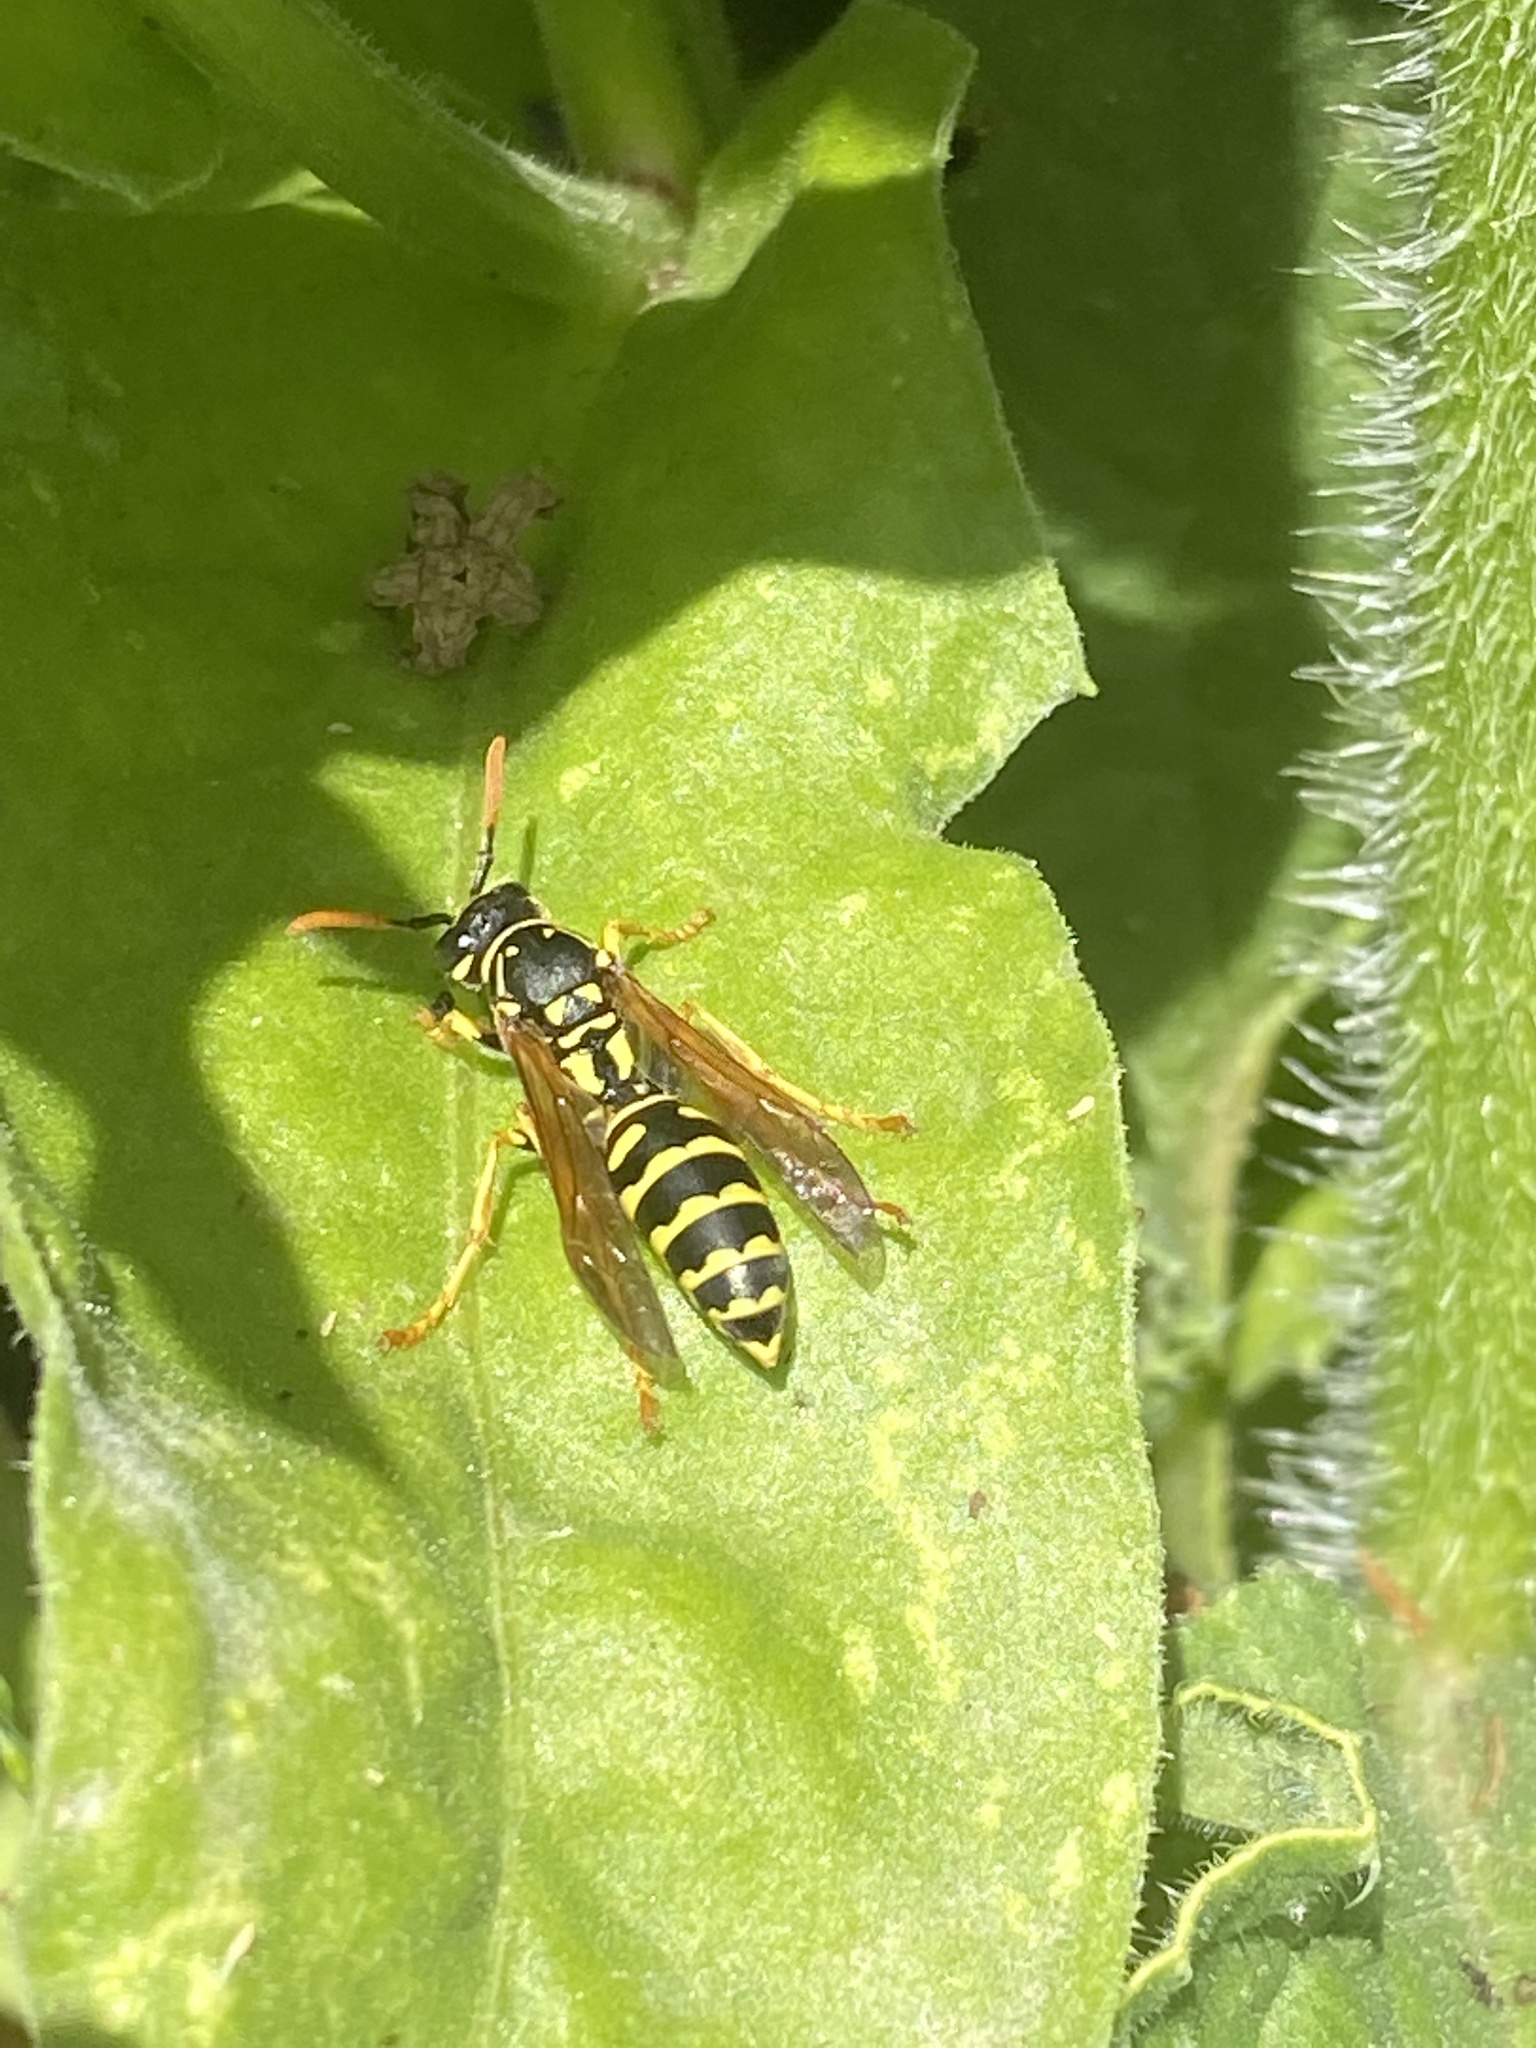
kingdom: Animalia
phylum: Arthropoda
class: Insecta
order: Hymenoptera
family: Eumenidae
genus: Polistes
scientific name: Polistes dominula
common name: Paper wasp
